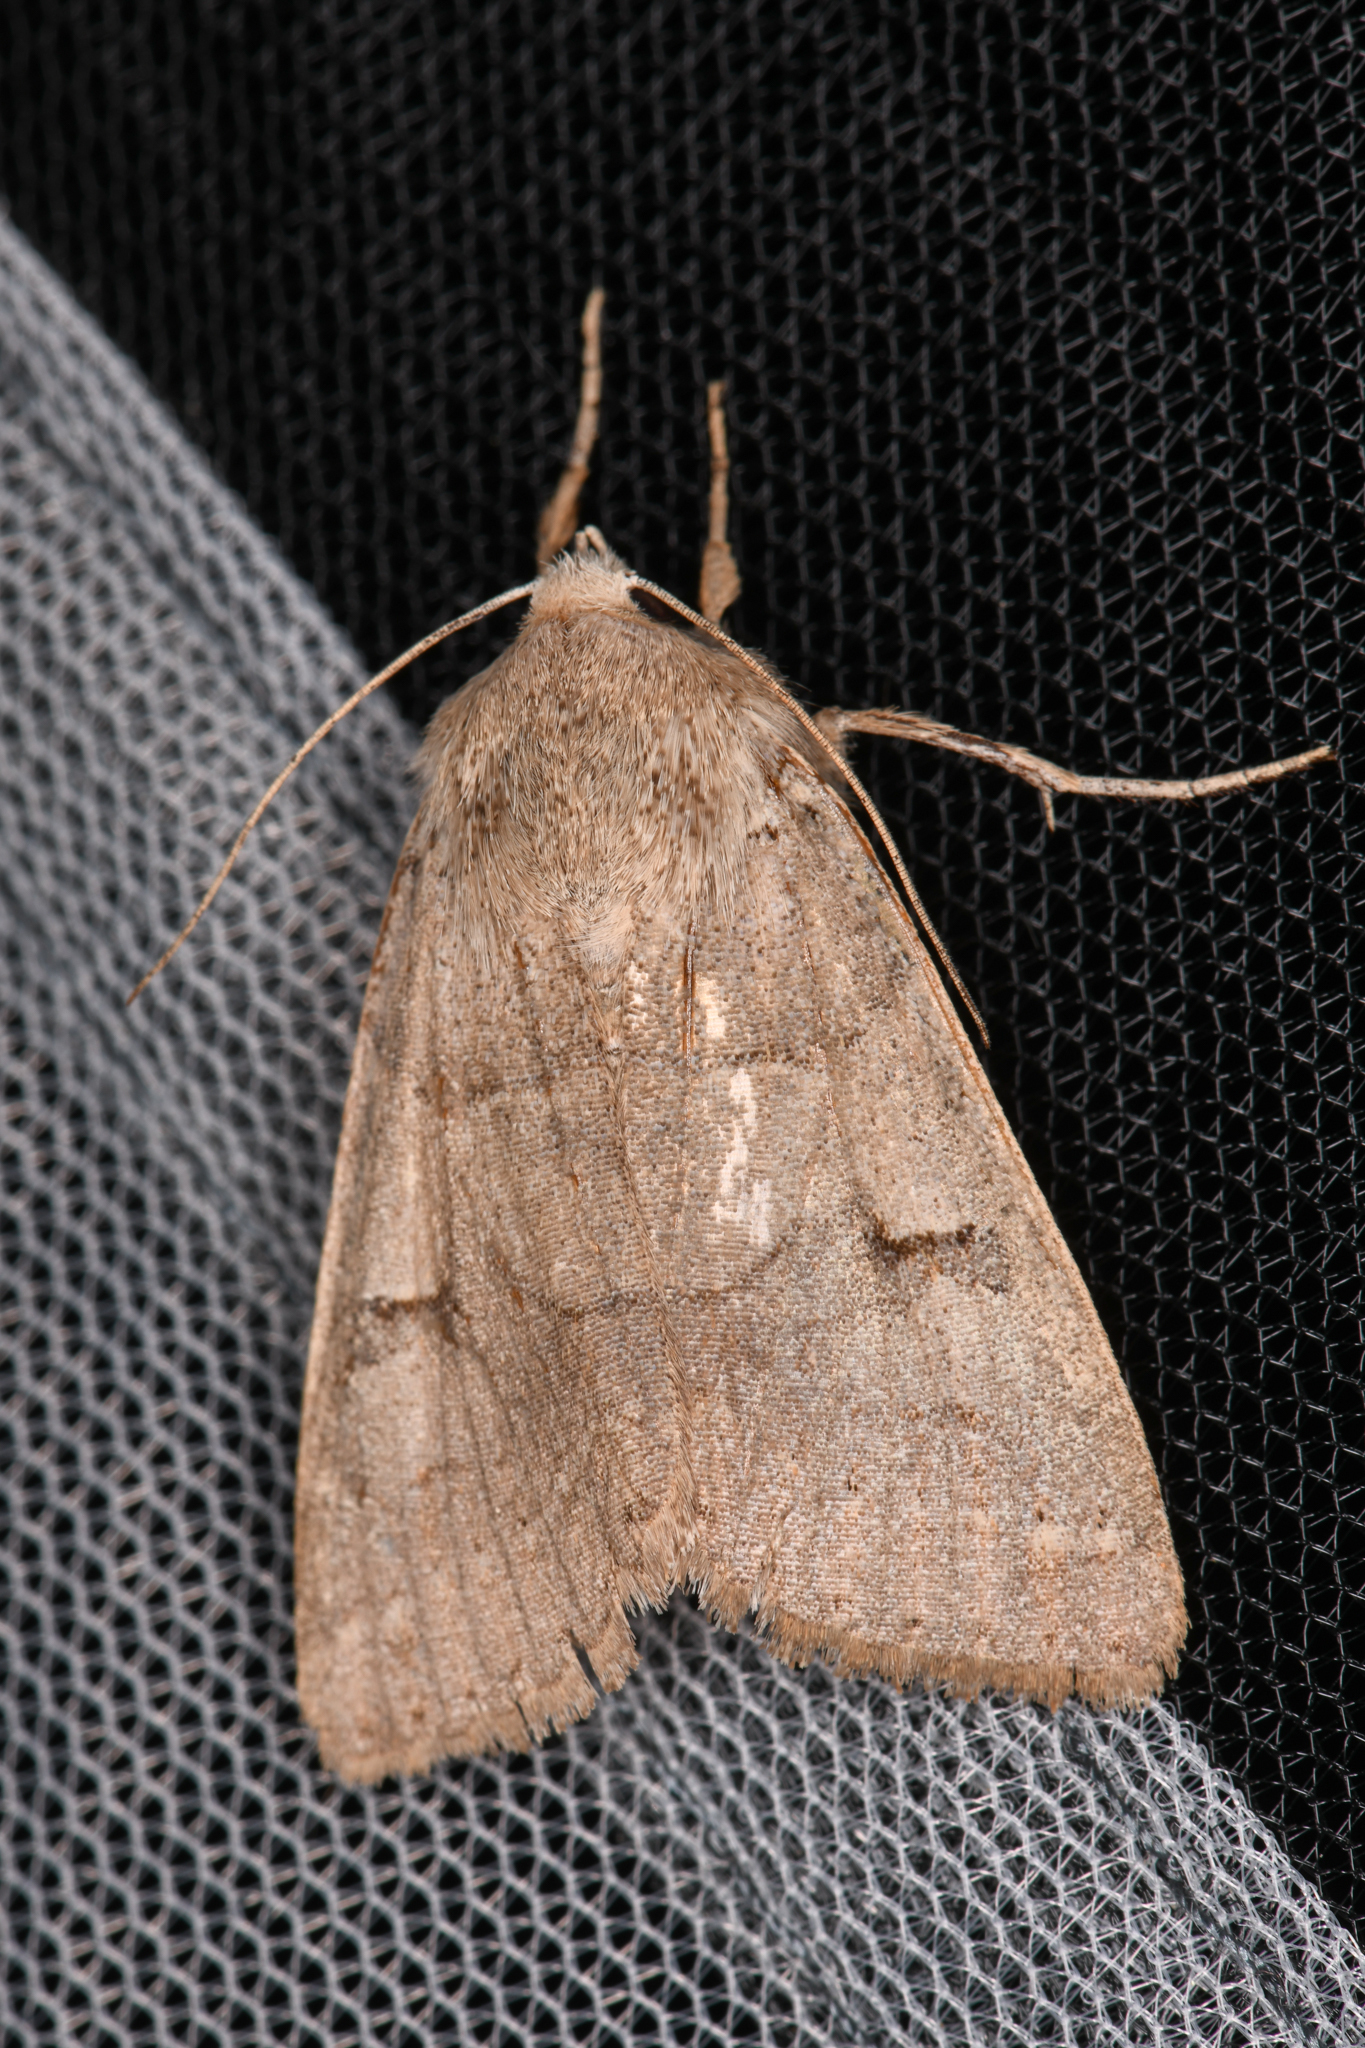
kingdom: Animalia
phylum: Arthropoda
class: Insecta
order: Lepidoptera
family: Erebidae
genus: Cissusa
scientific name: Cissusa indiscreta
